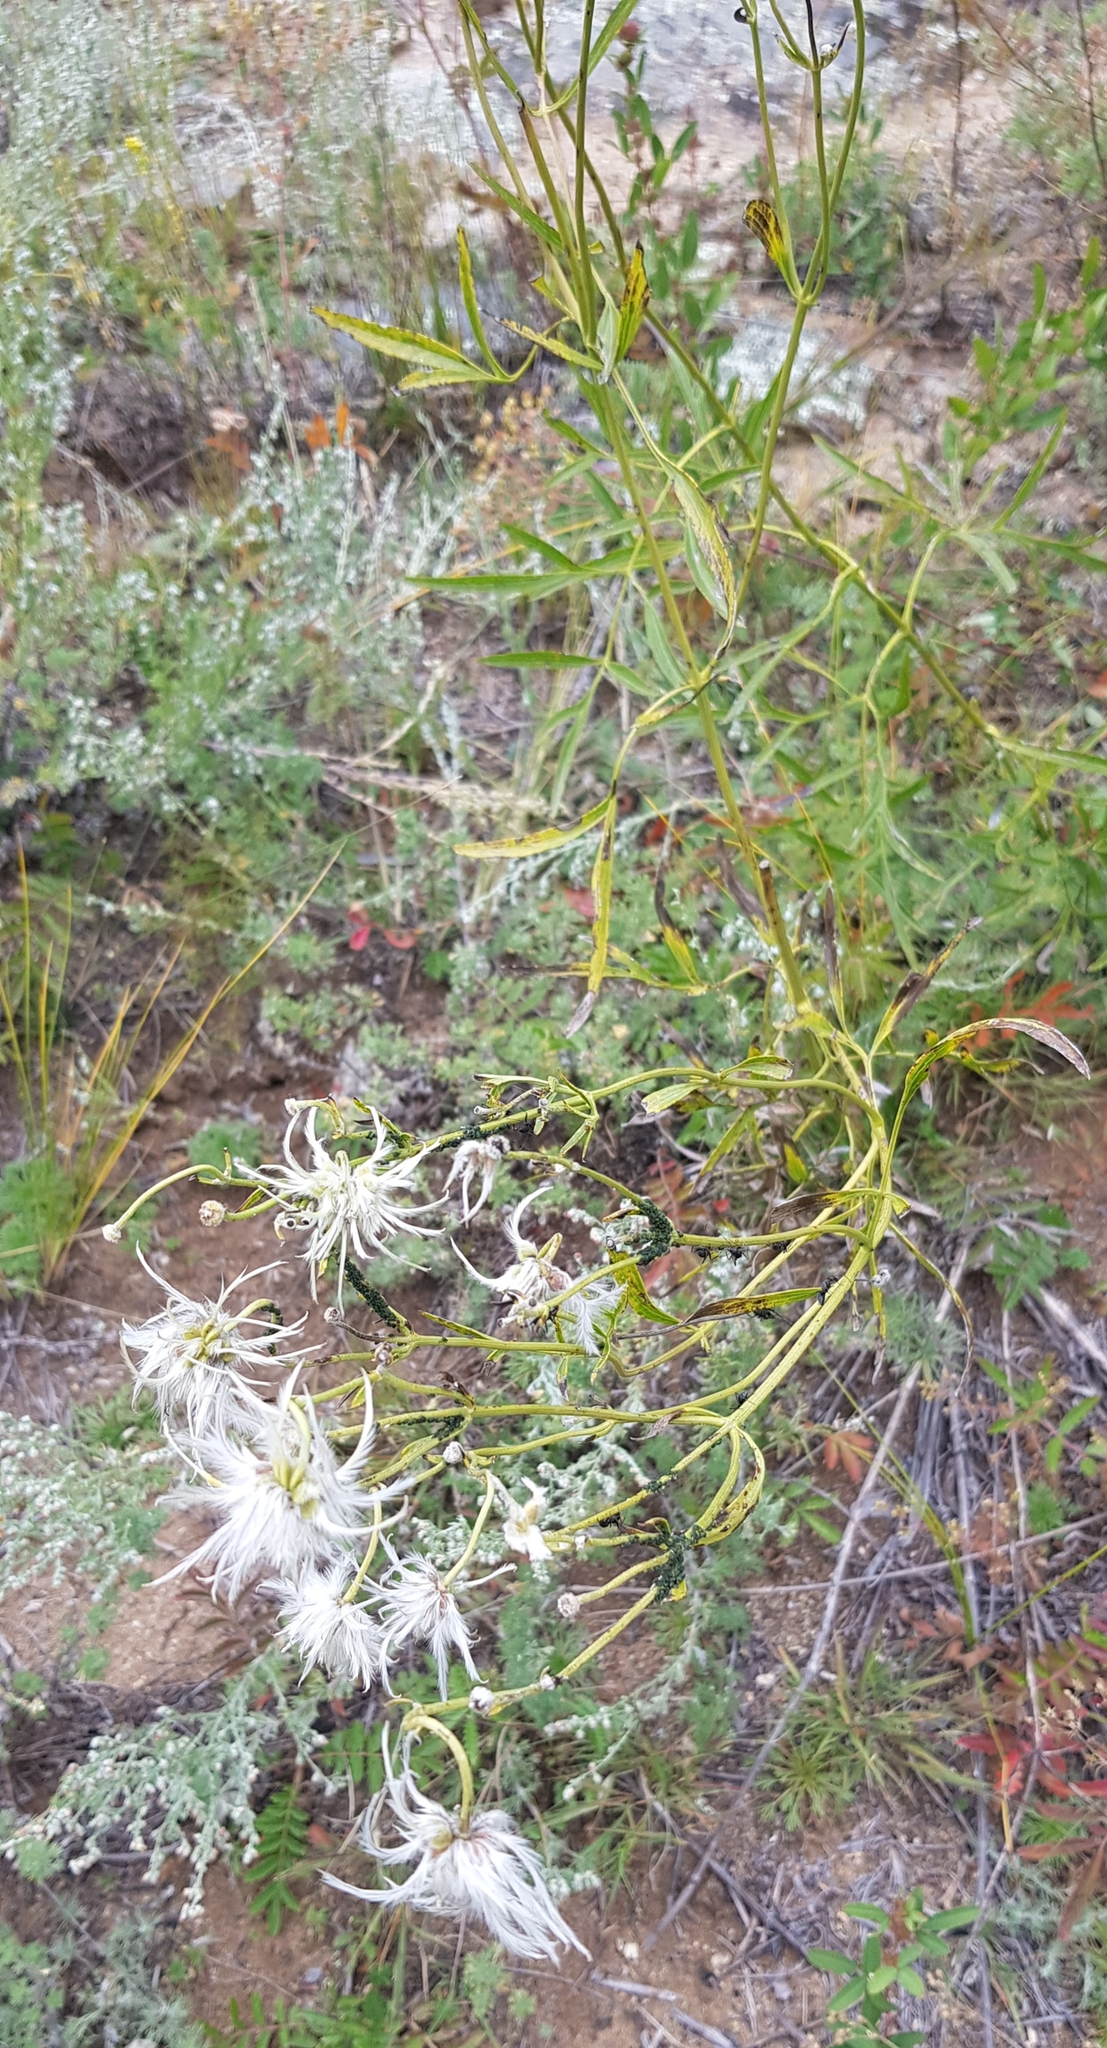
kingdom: Plantae
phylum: Tracheophyta
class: Magnoliopsida
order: Ranunculales
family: Ranunculaceae
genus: Clematis
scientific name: Clematis hexapetala
